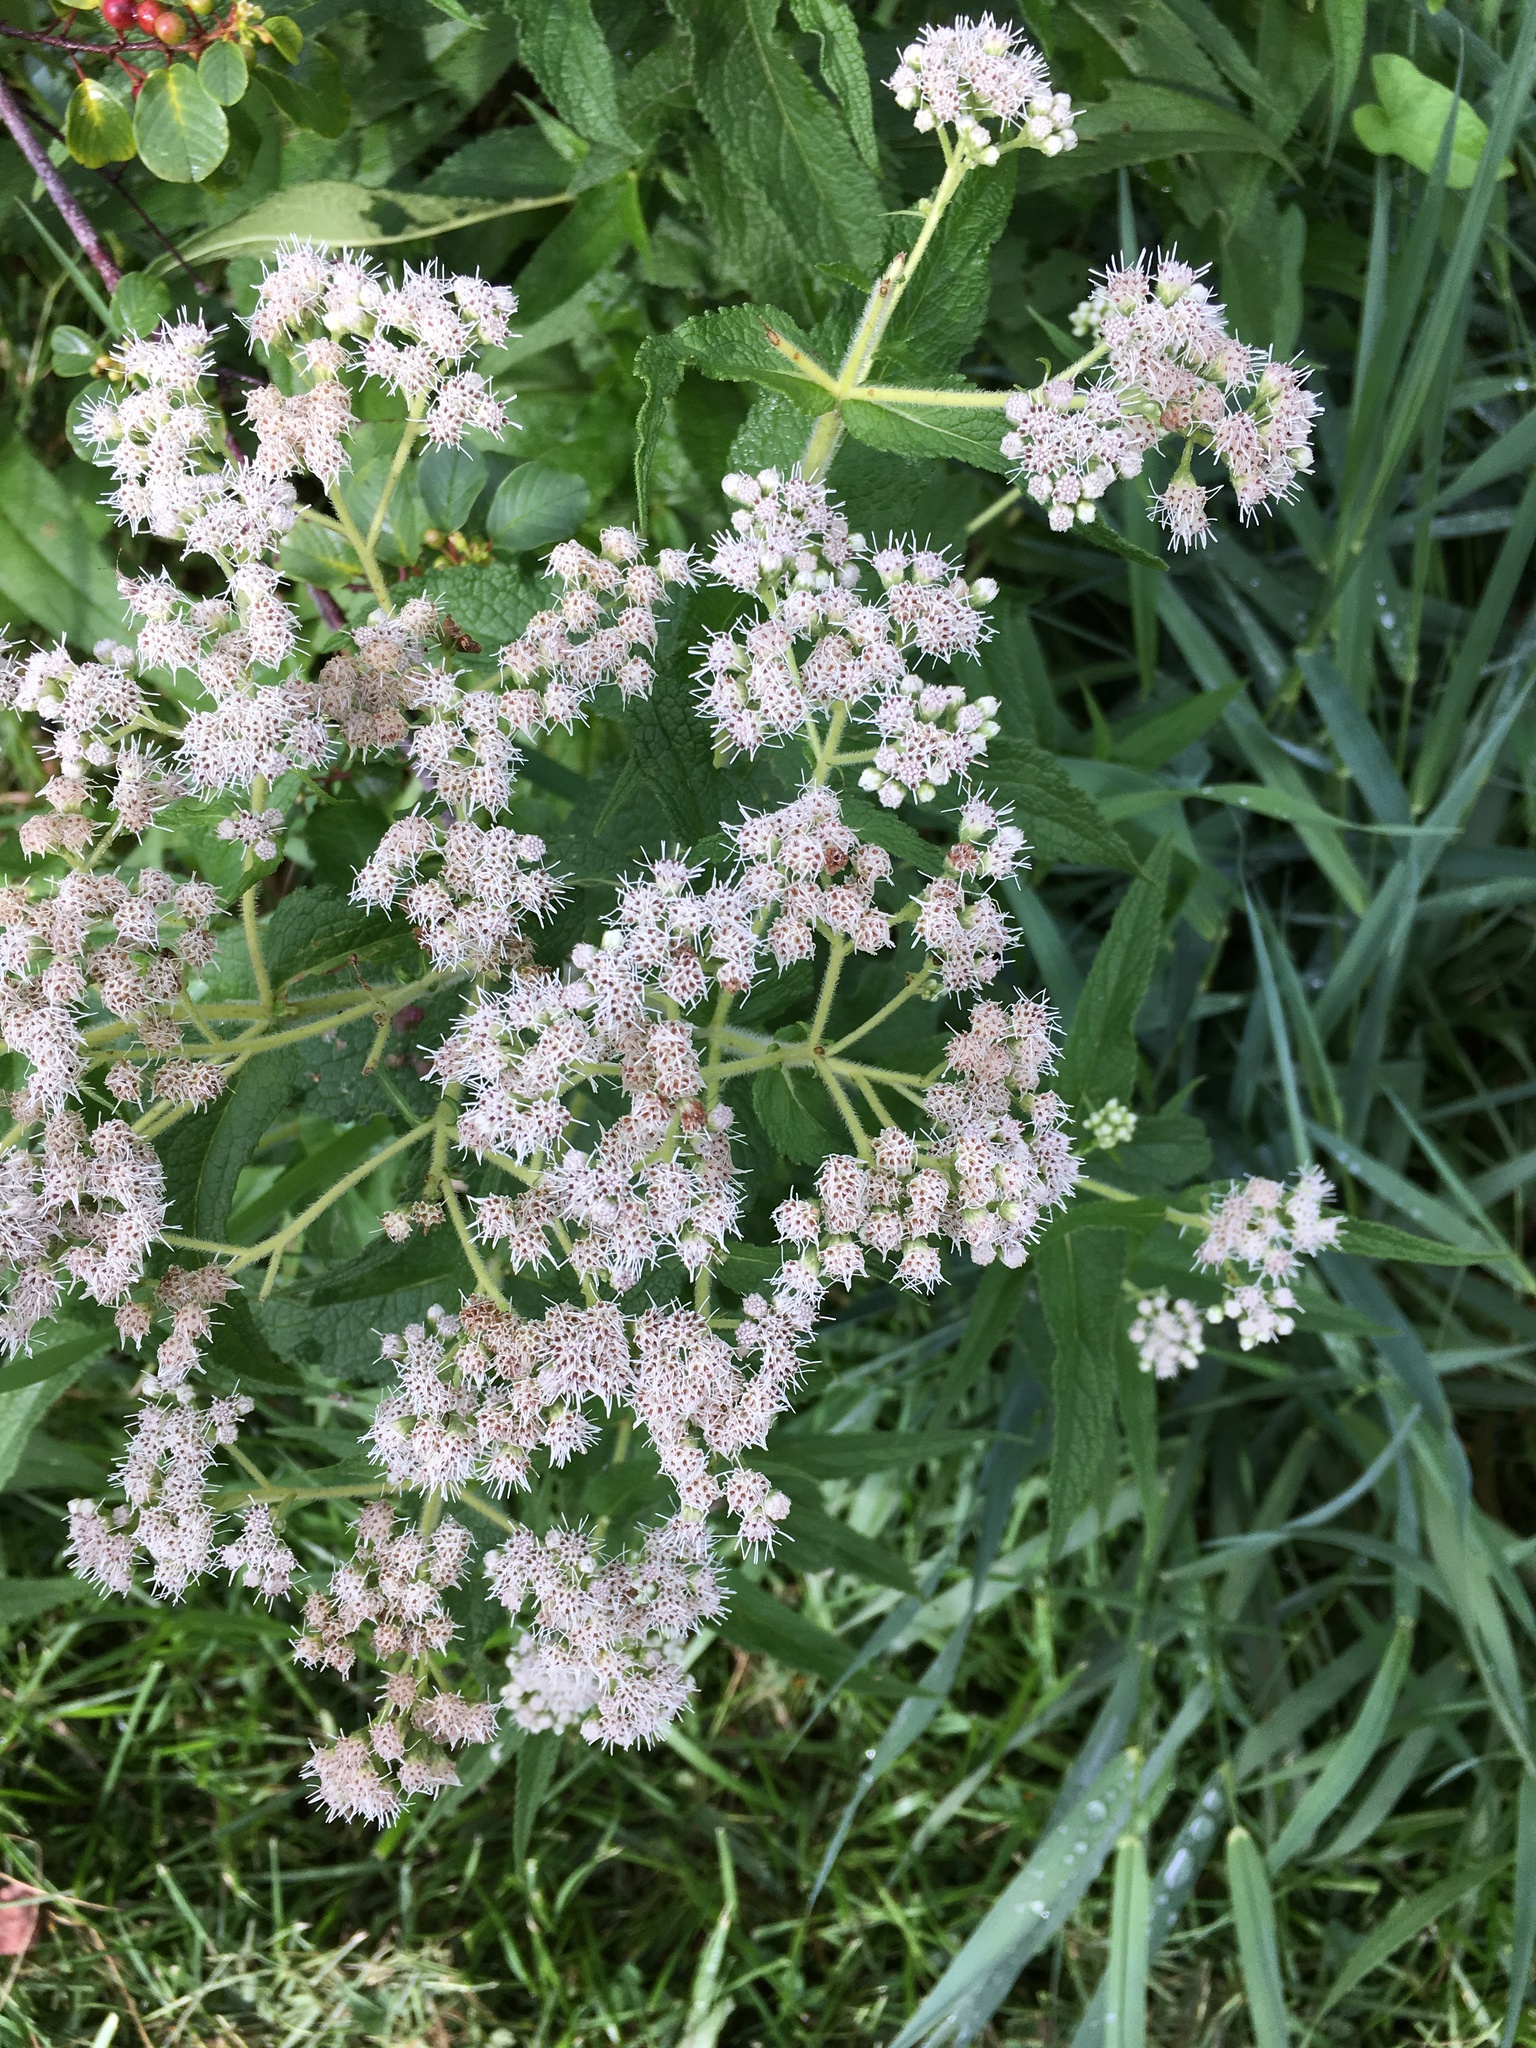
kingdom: Plantae
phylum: Tracheophyta
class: Magnoliopsida
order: Asterales
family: Asteraceae
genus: Eupatorium
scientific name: Eupatorium perfoliatum
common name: Boneset
